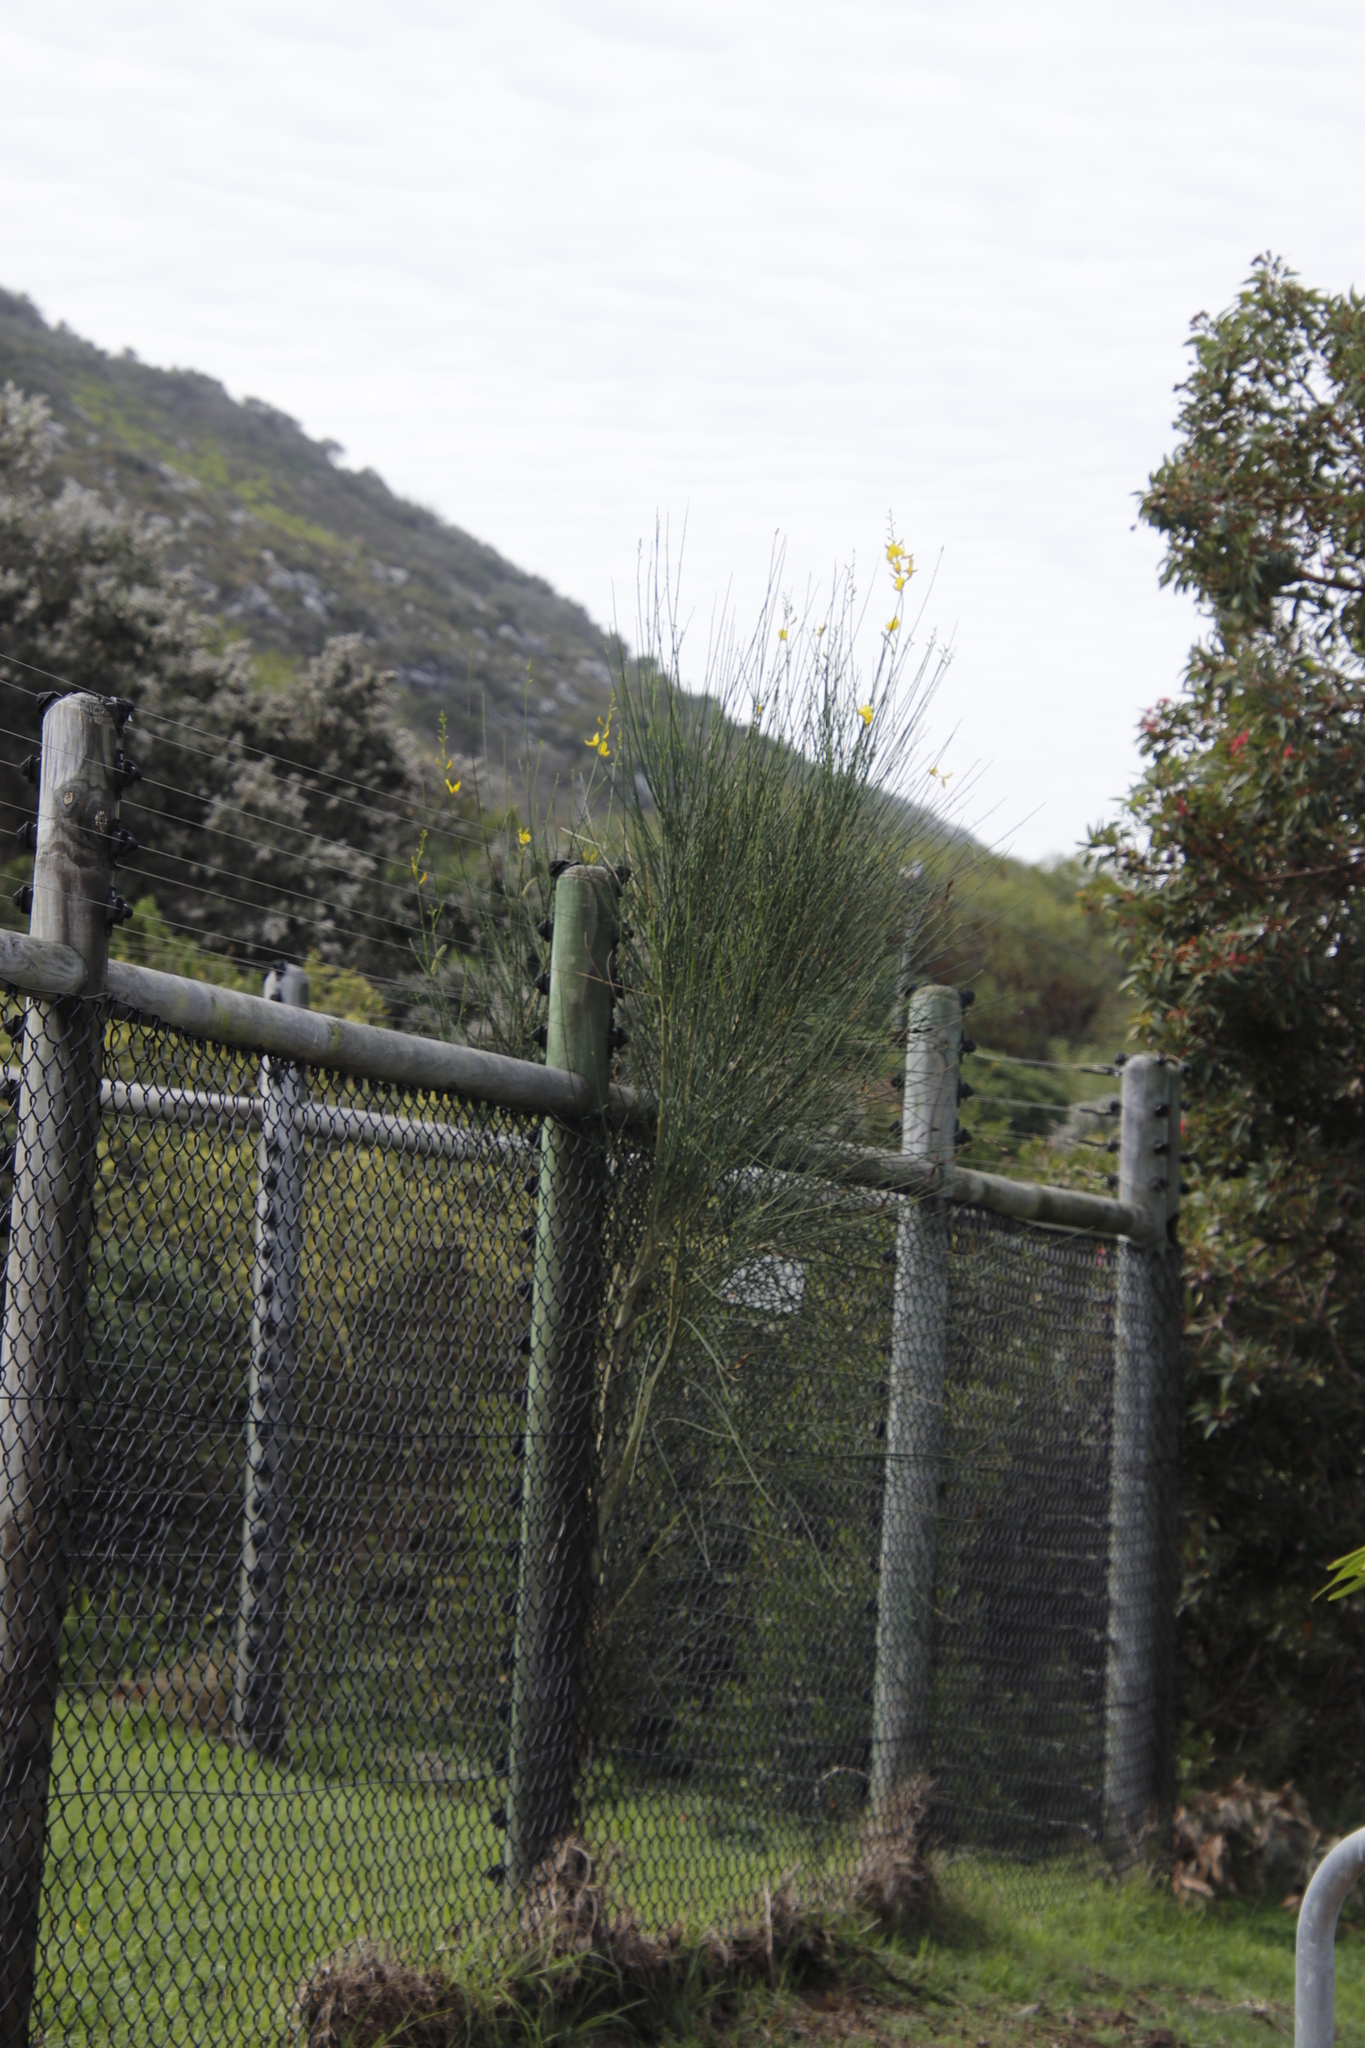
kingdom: Plantae
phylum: Tracheophyta
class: Magnoliopsida
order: Fabales
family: Fabaceae
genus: Spartium
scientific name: Spartium junceum
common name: Spanish broom
